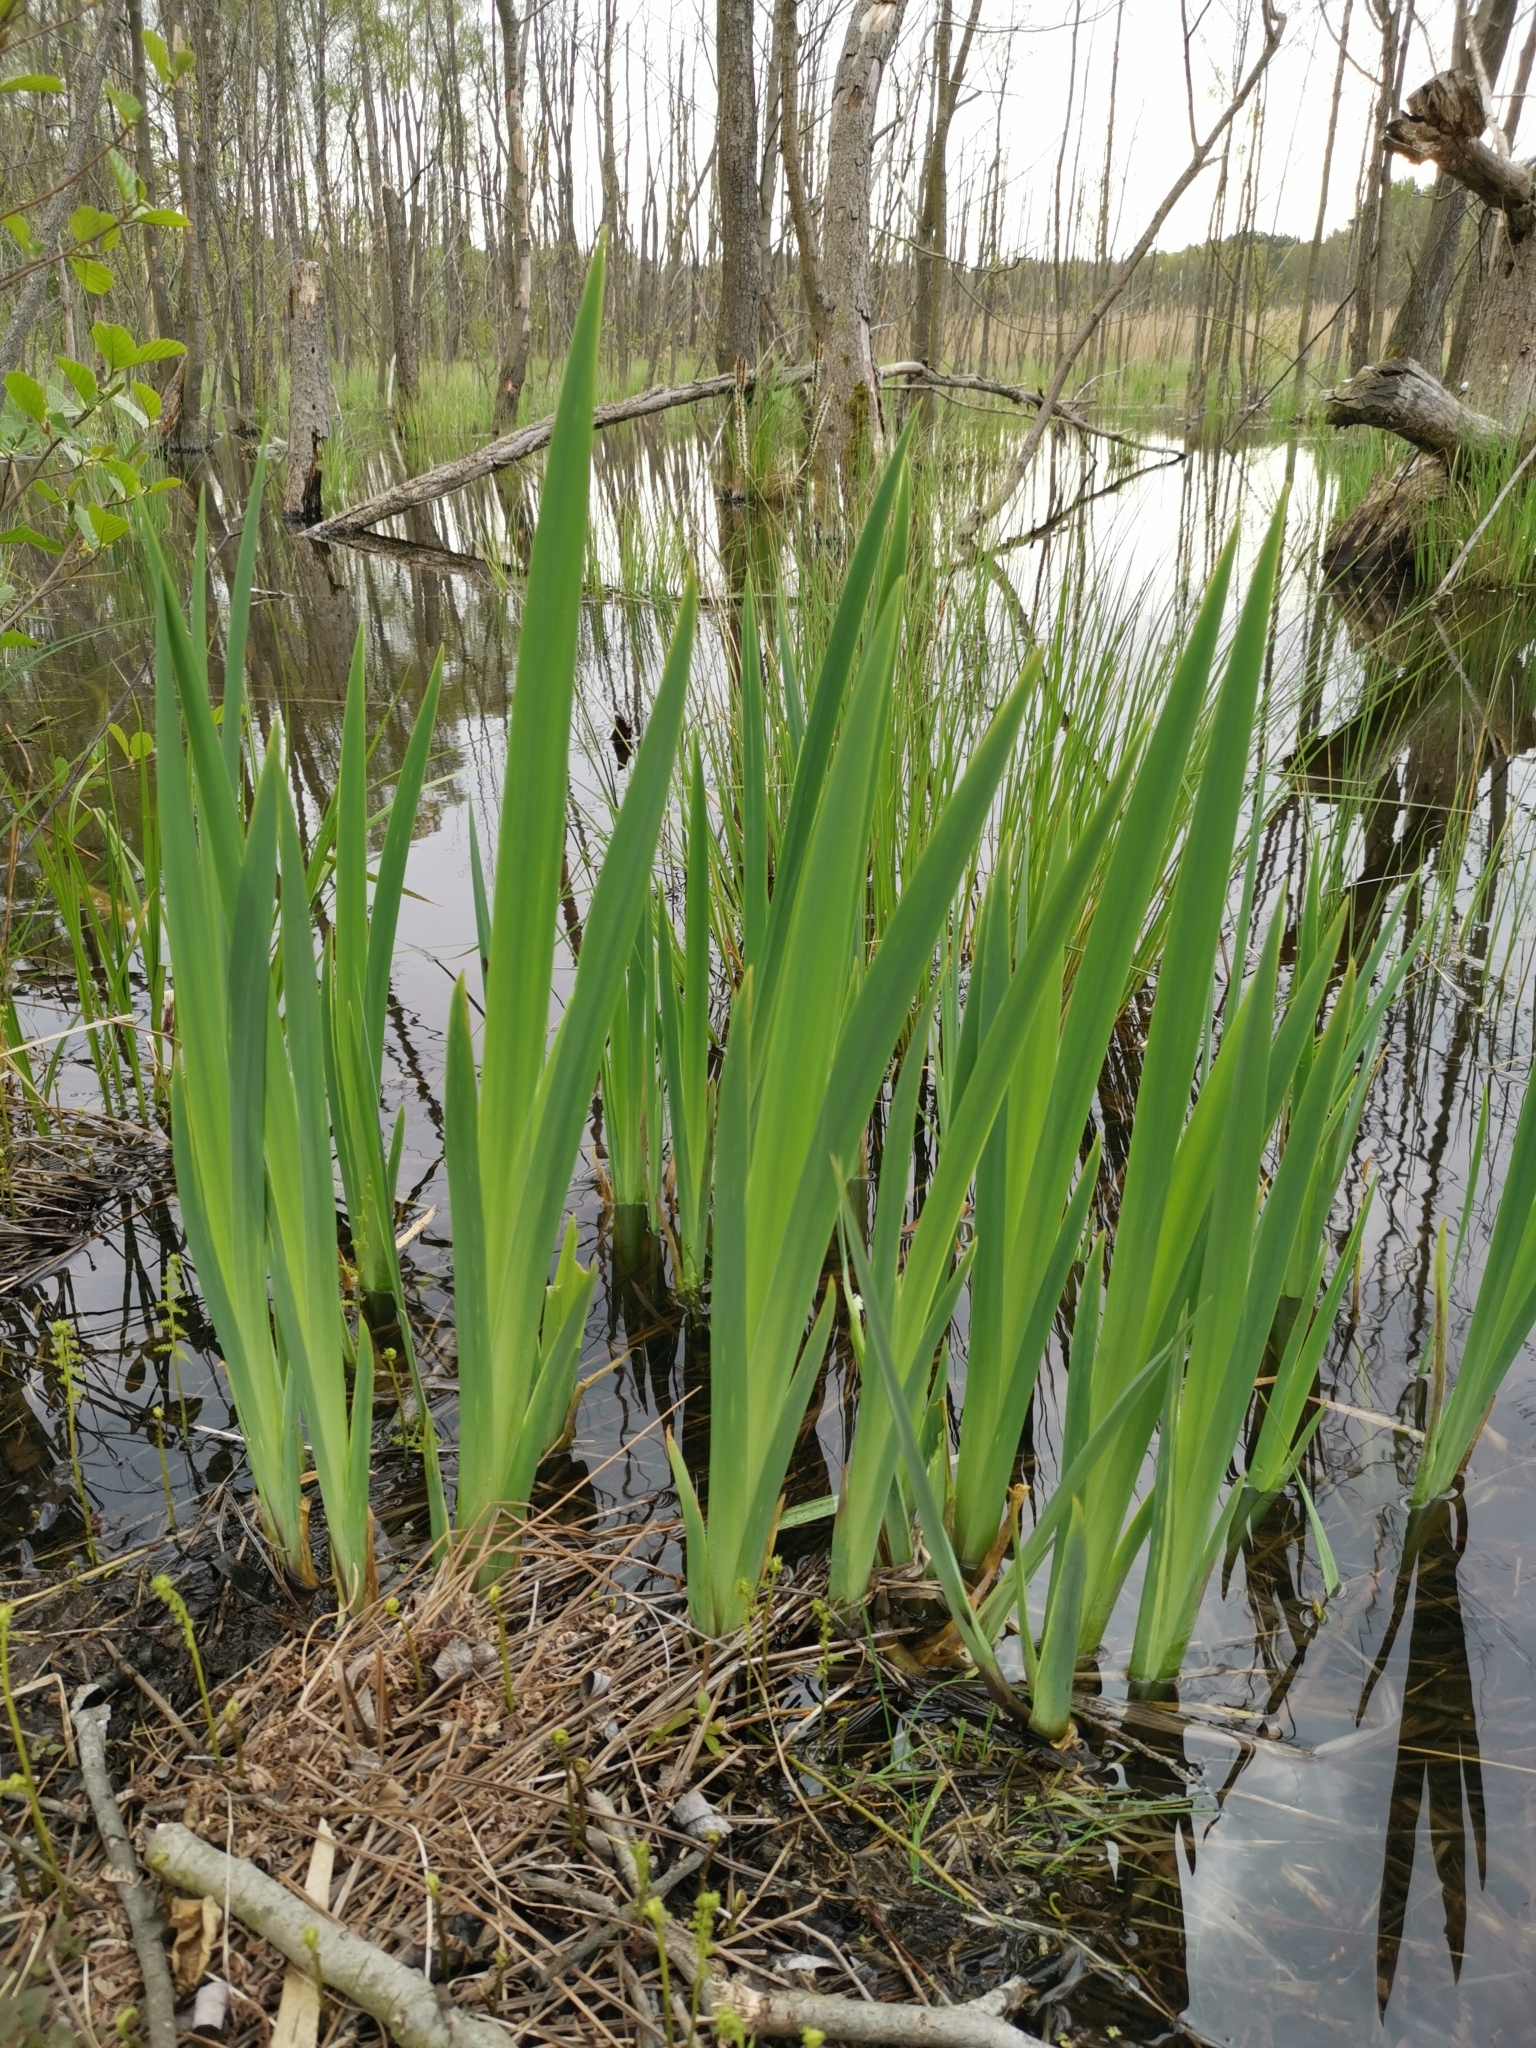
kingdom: Plantae
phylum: Tracheophyta
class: Liliopsida
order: Asparagales
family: Iridaceae
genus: Iris
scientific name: Iris pseudacorus
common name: Yellow flag
